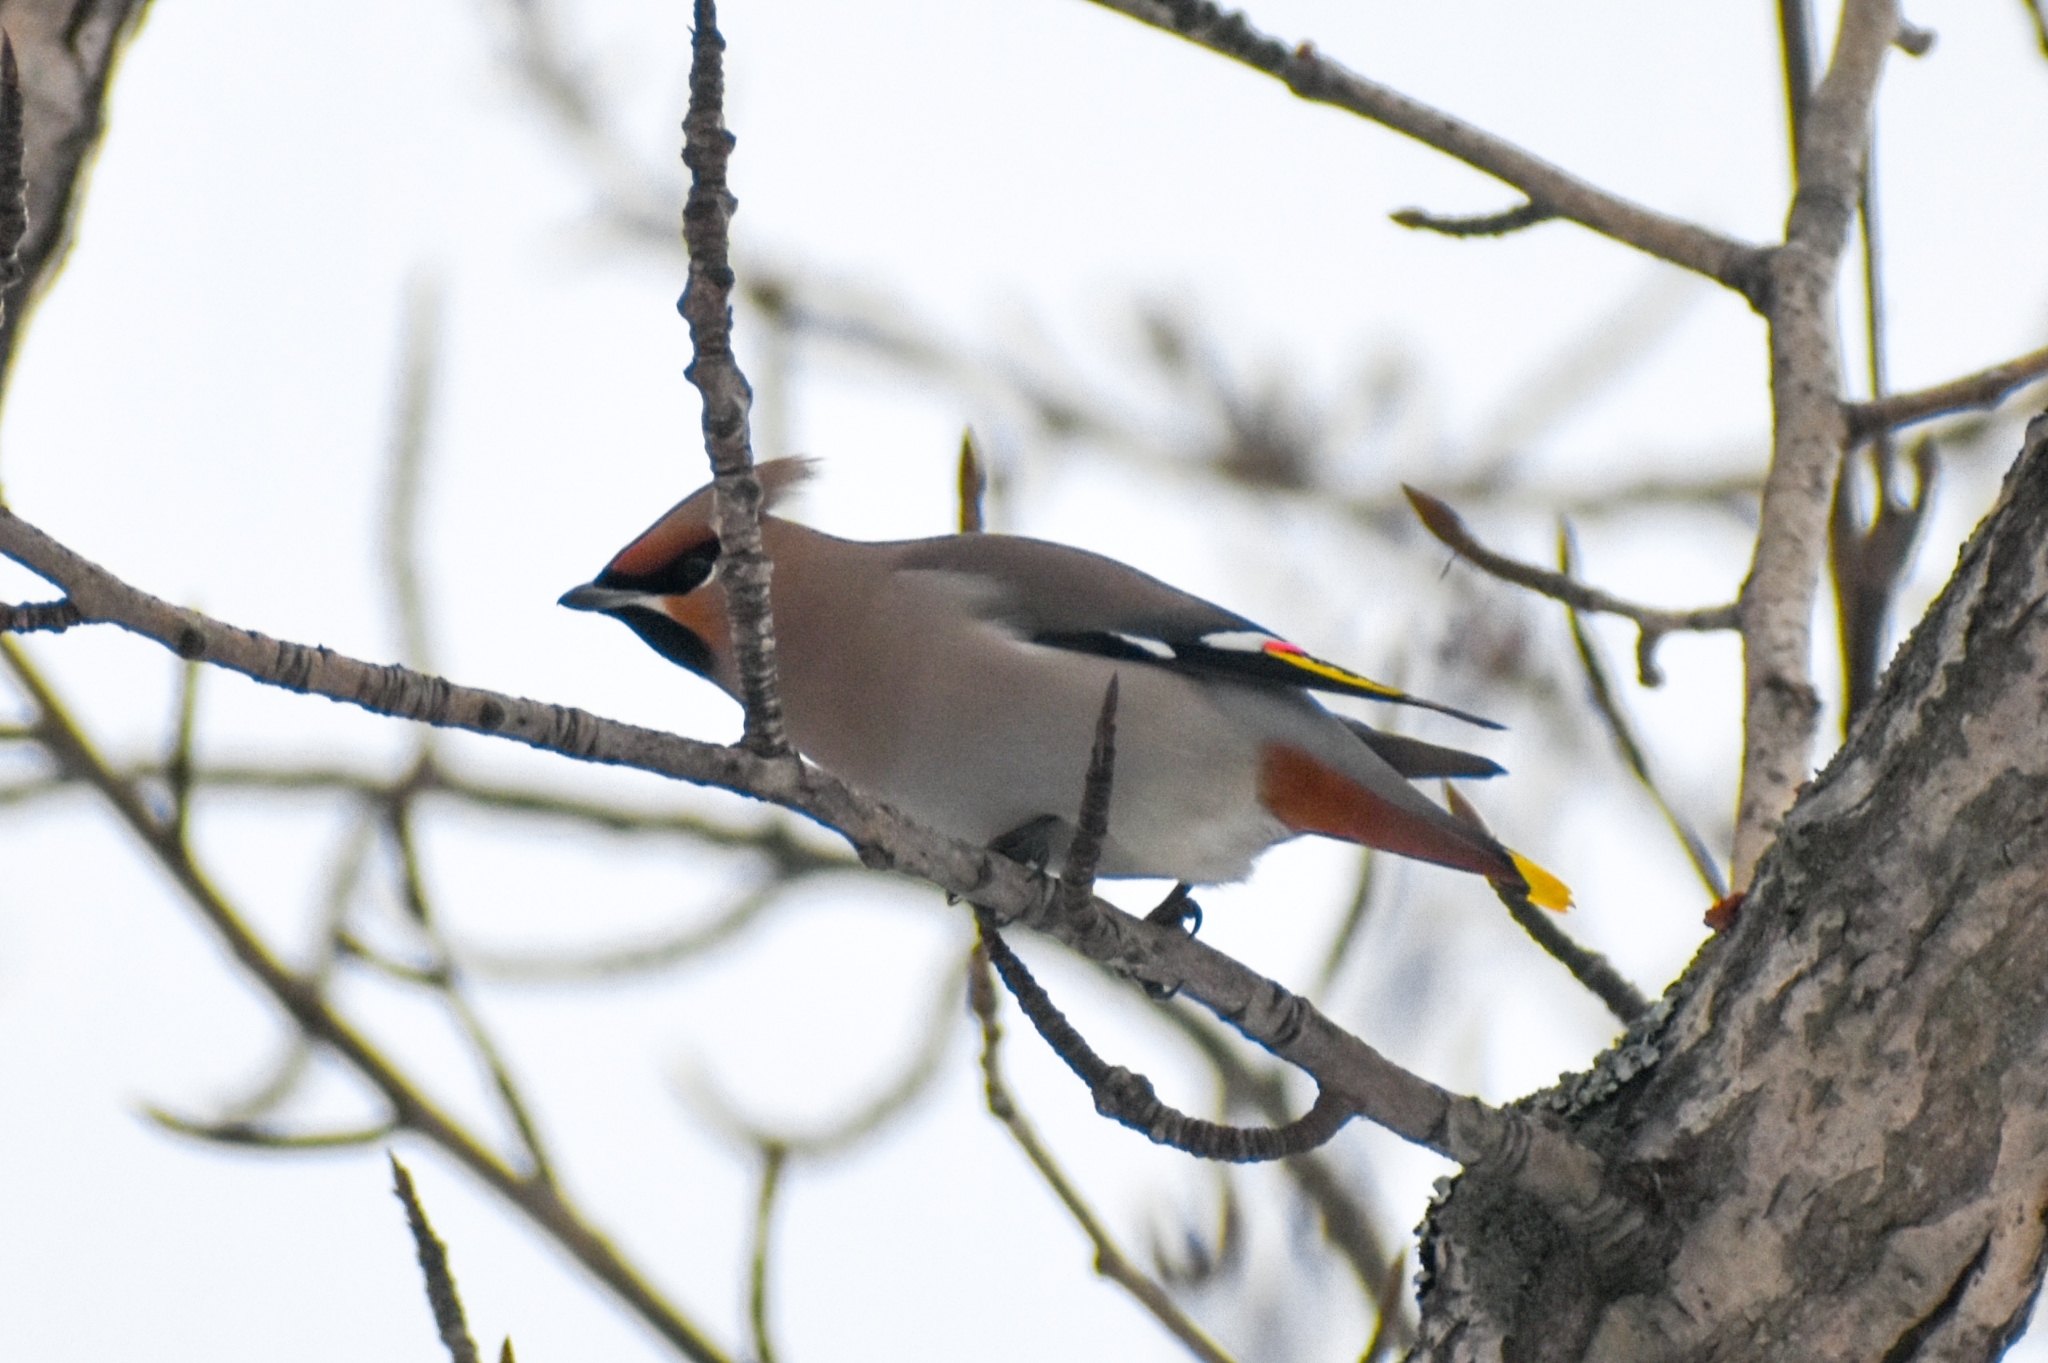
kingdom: Animalia
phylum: Chordata
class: Aves
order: Passeriformes
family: Bombycillidae
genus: Bombycilla
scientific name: Bombycilla garrulus
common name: Bohemian waxwing
